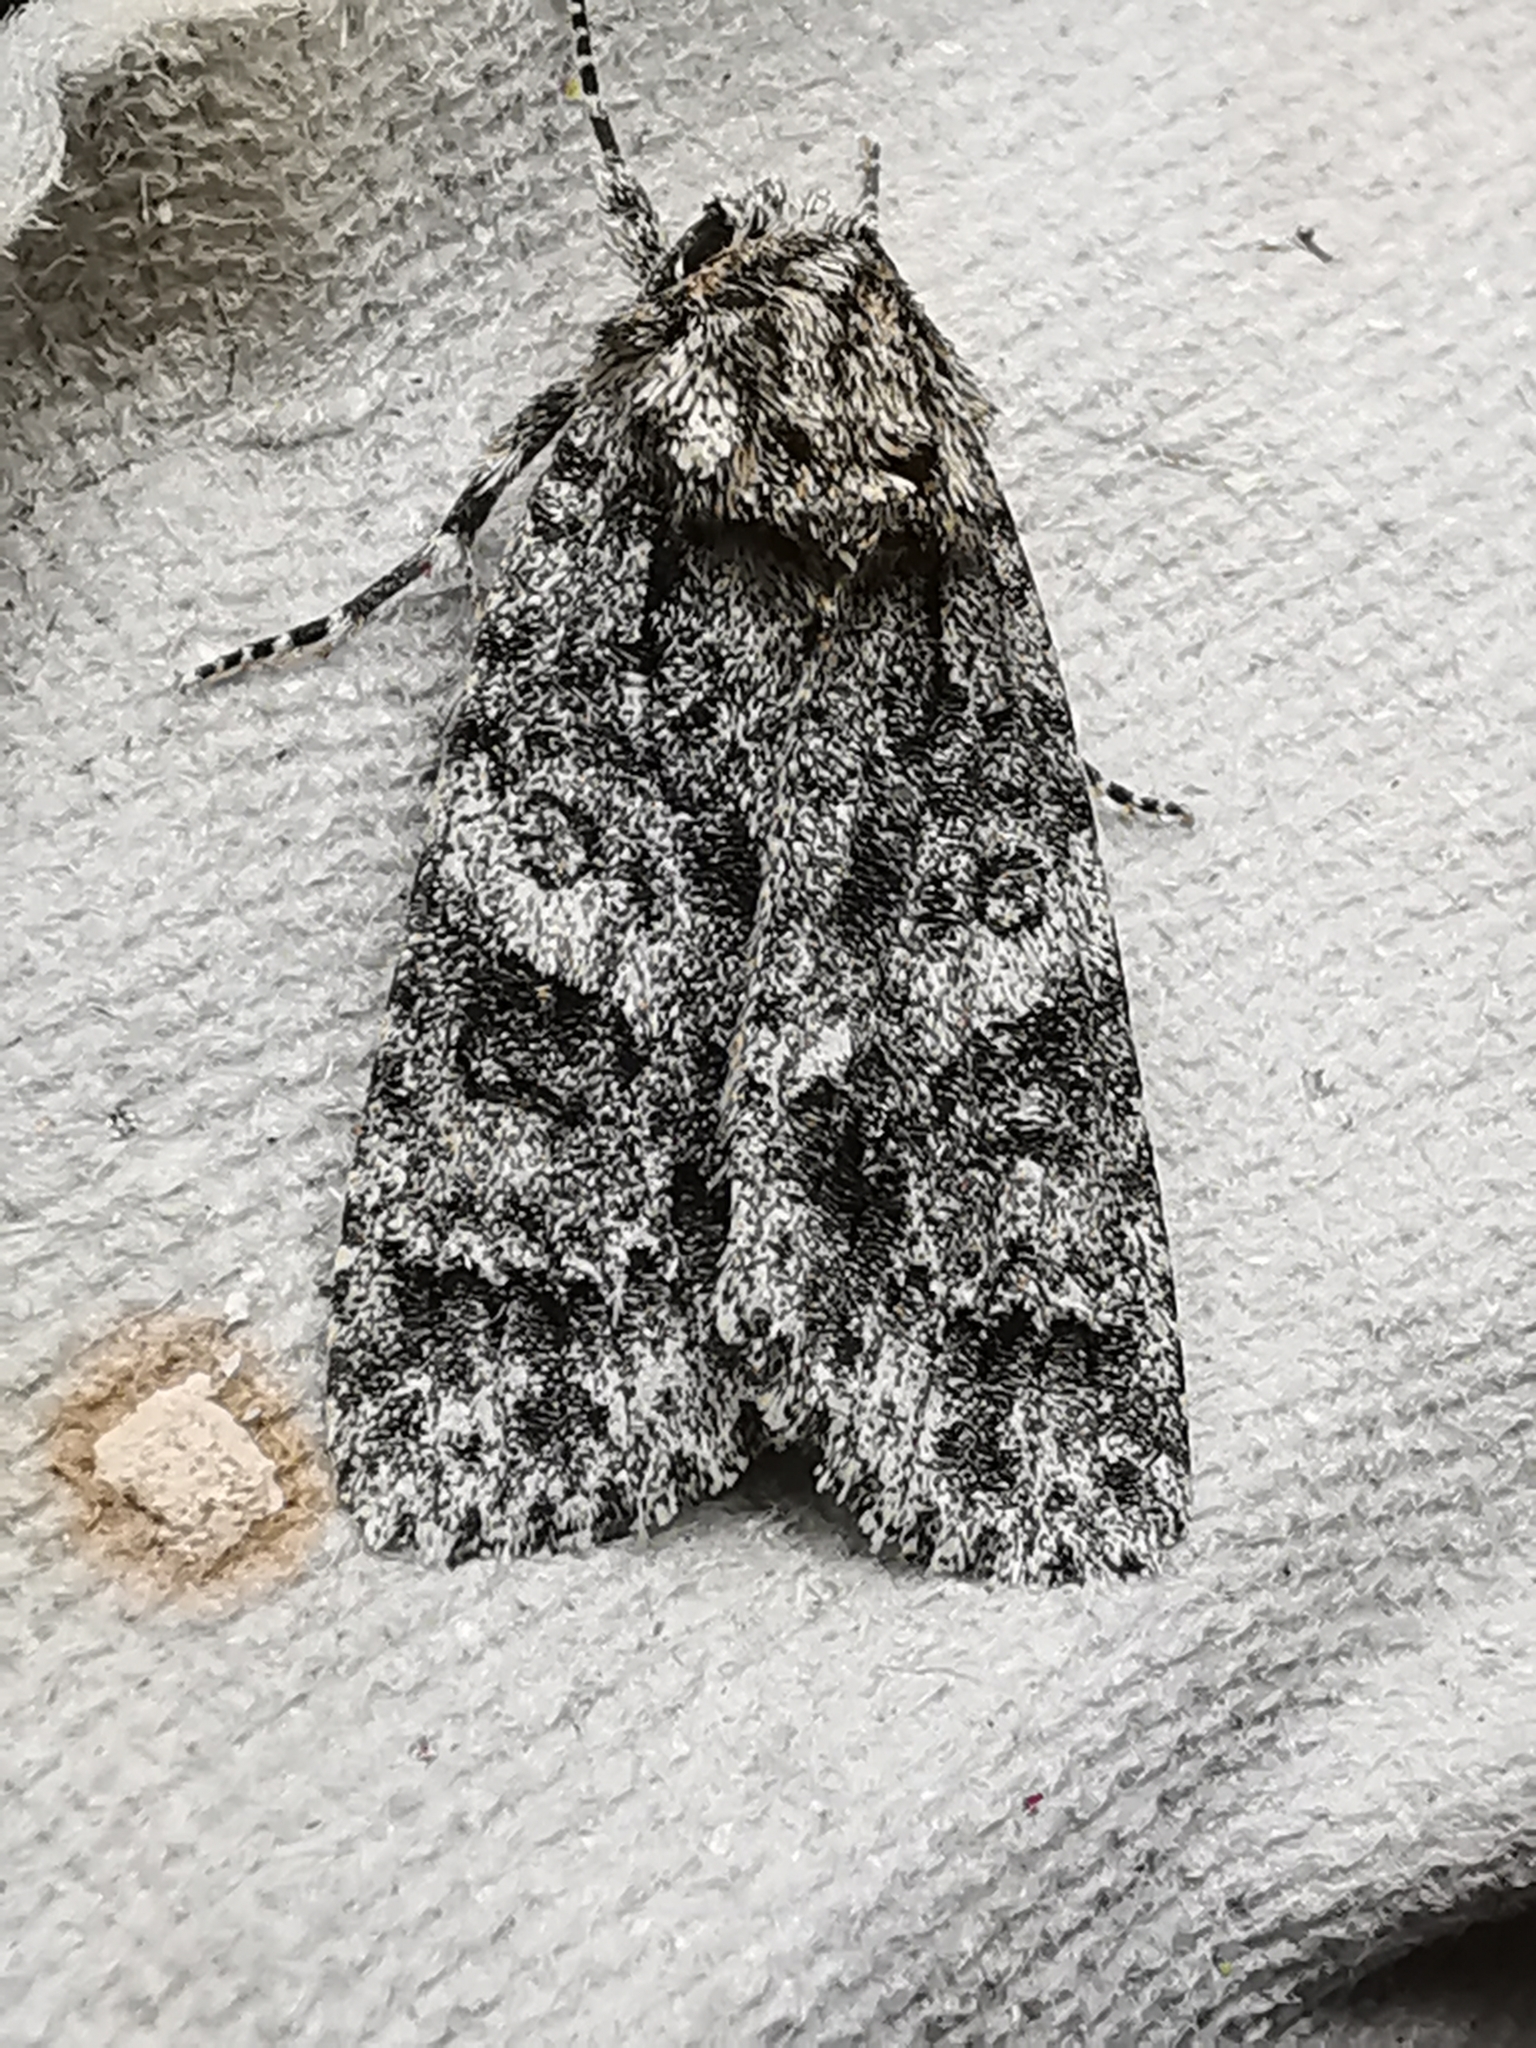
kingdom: Animalia
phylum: Arthropoda
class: Insecta
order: Lepidoptera
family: Noctuidae
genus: Acronicta
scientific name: Acronicta rumicis
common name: Knot grass
